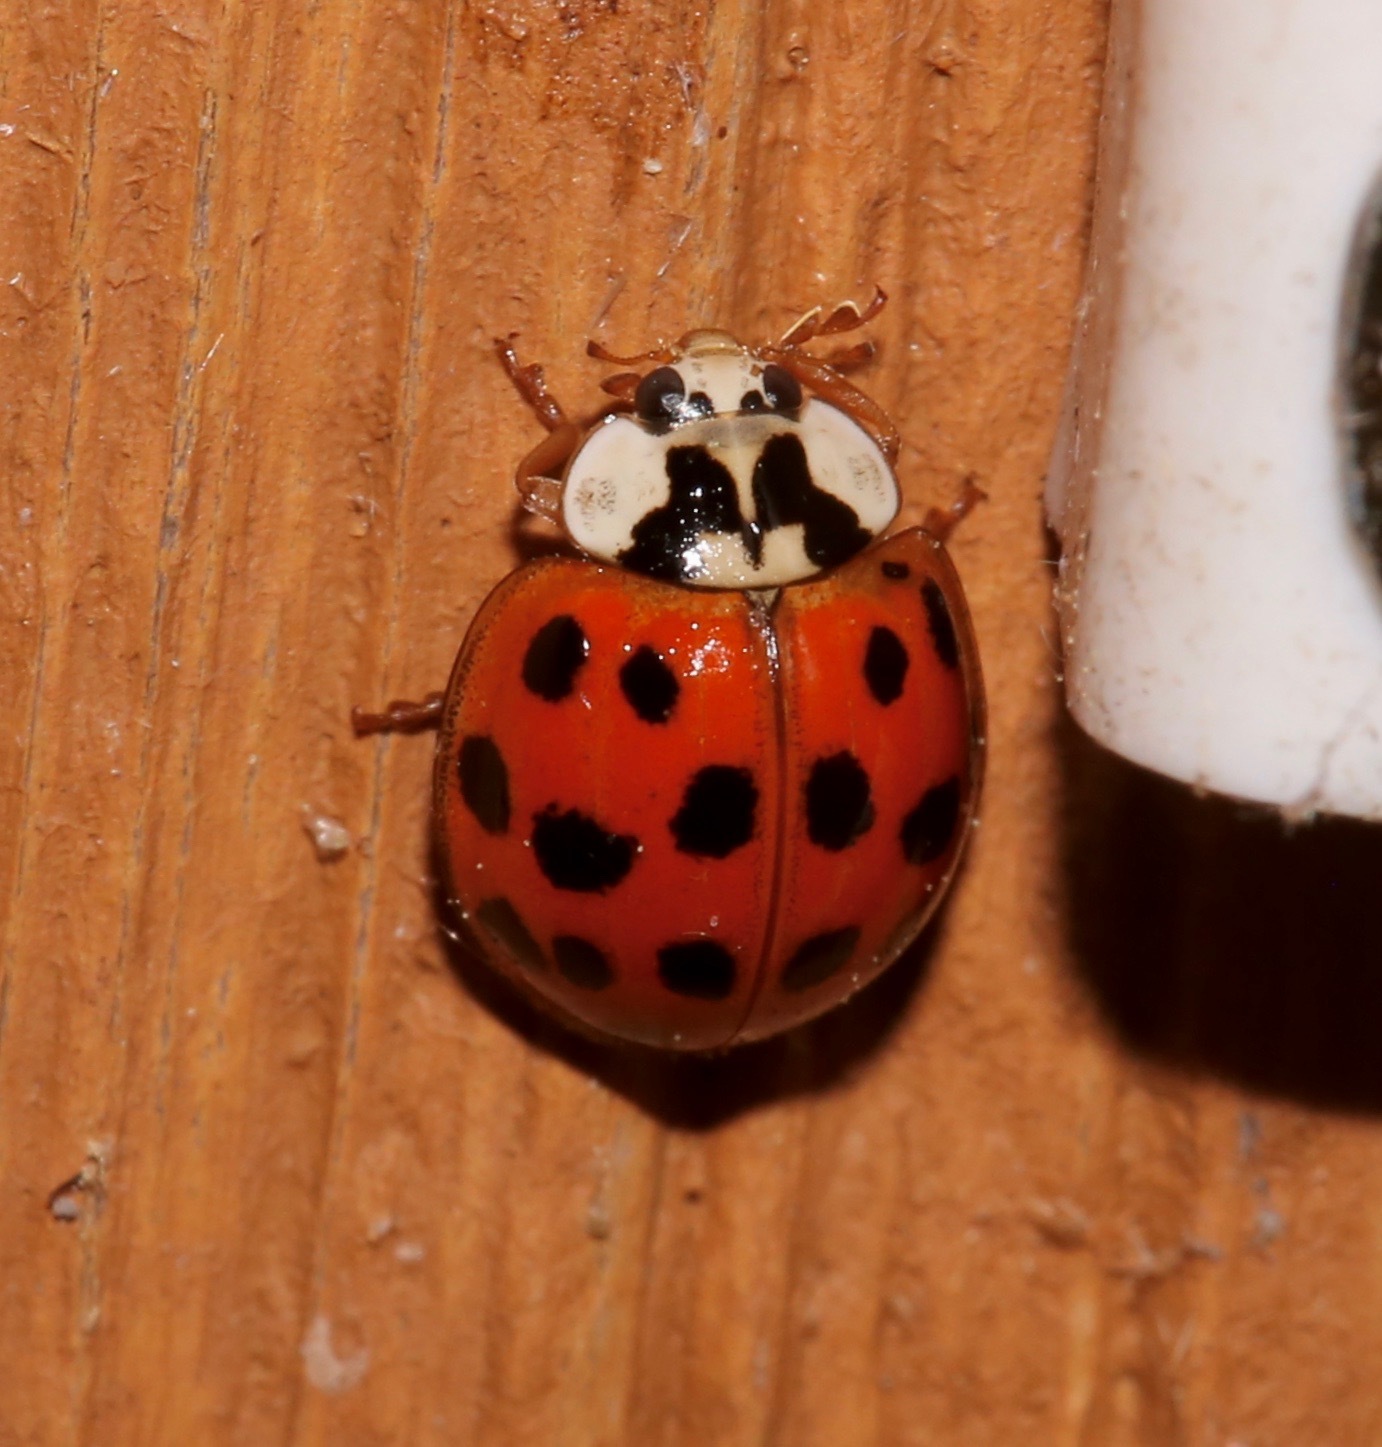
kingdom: Animalia
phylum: Arthropoda
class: Insecta
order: Coleoptera
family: Coccinellidae
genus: Harmonia
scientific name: Harmonia axyridis
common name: Harlequin ladybird
